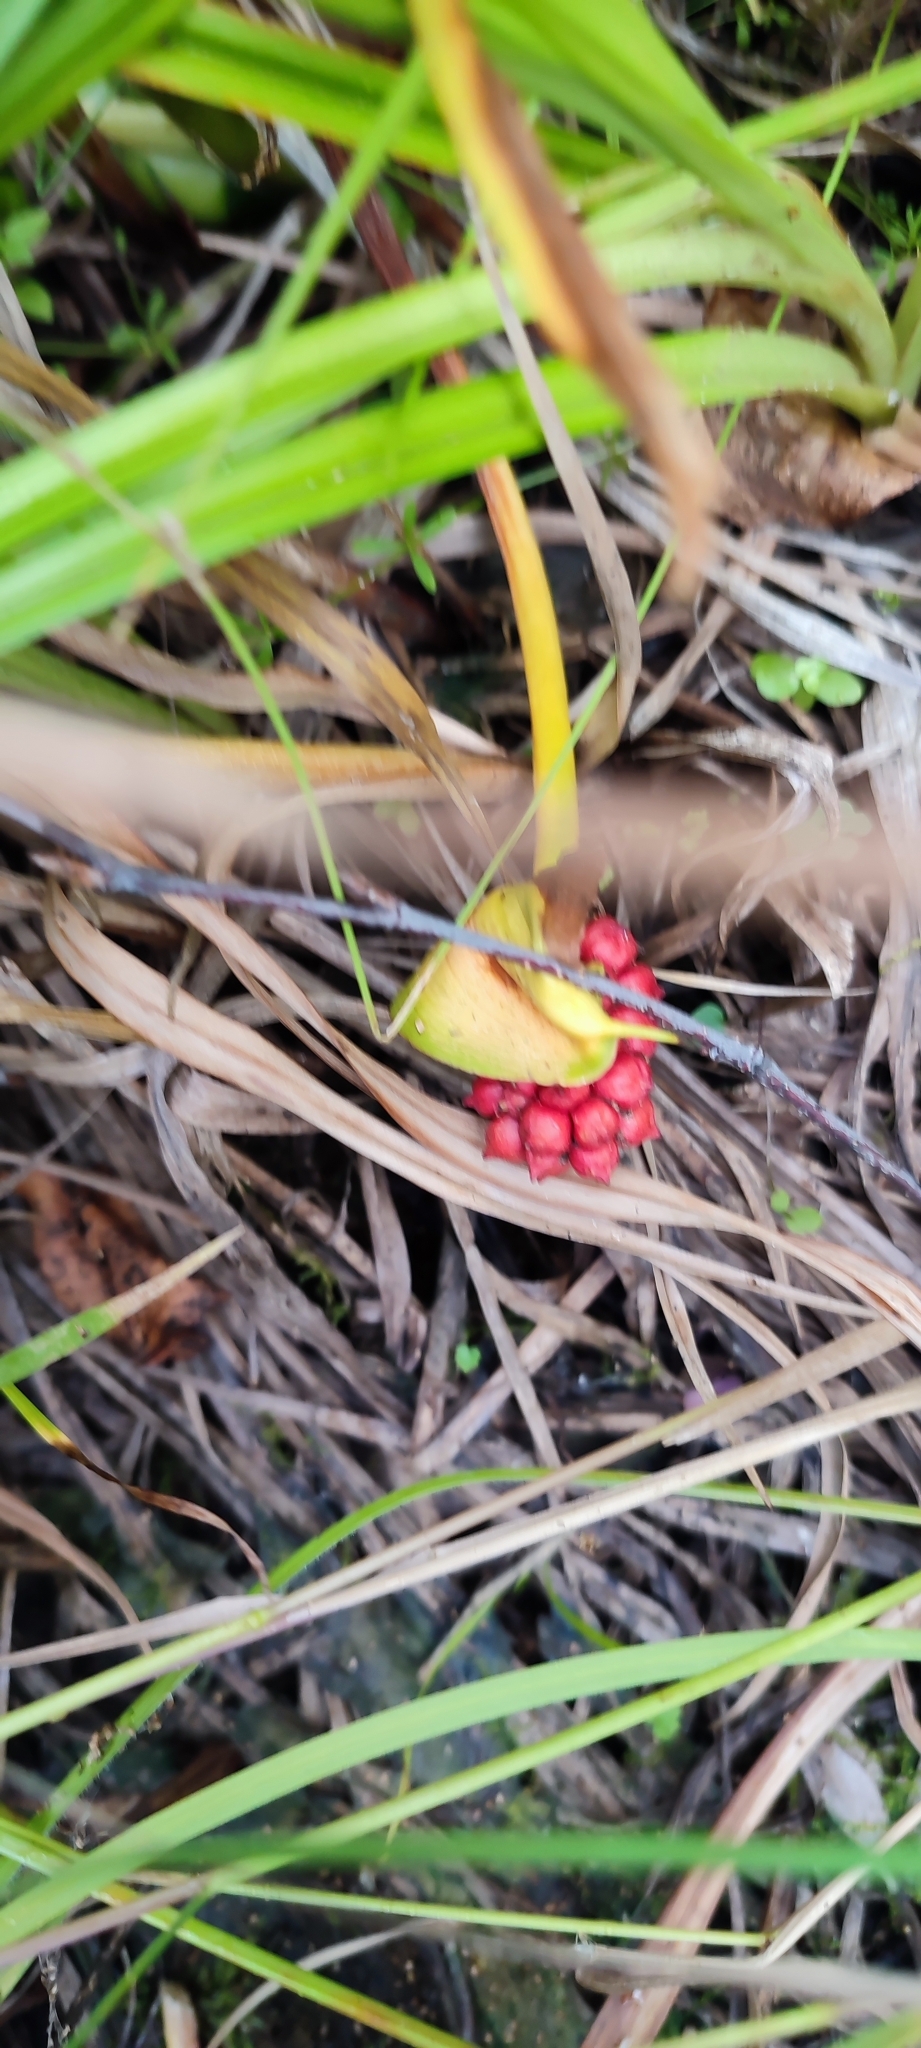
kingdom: Plantae
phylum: Tracheophyta
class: Liliopsida
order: Alismatales
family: Araceae
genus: Calla
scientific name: Calla palustris
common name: Bog arum
